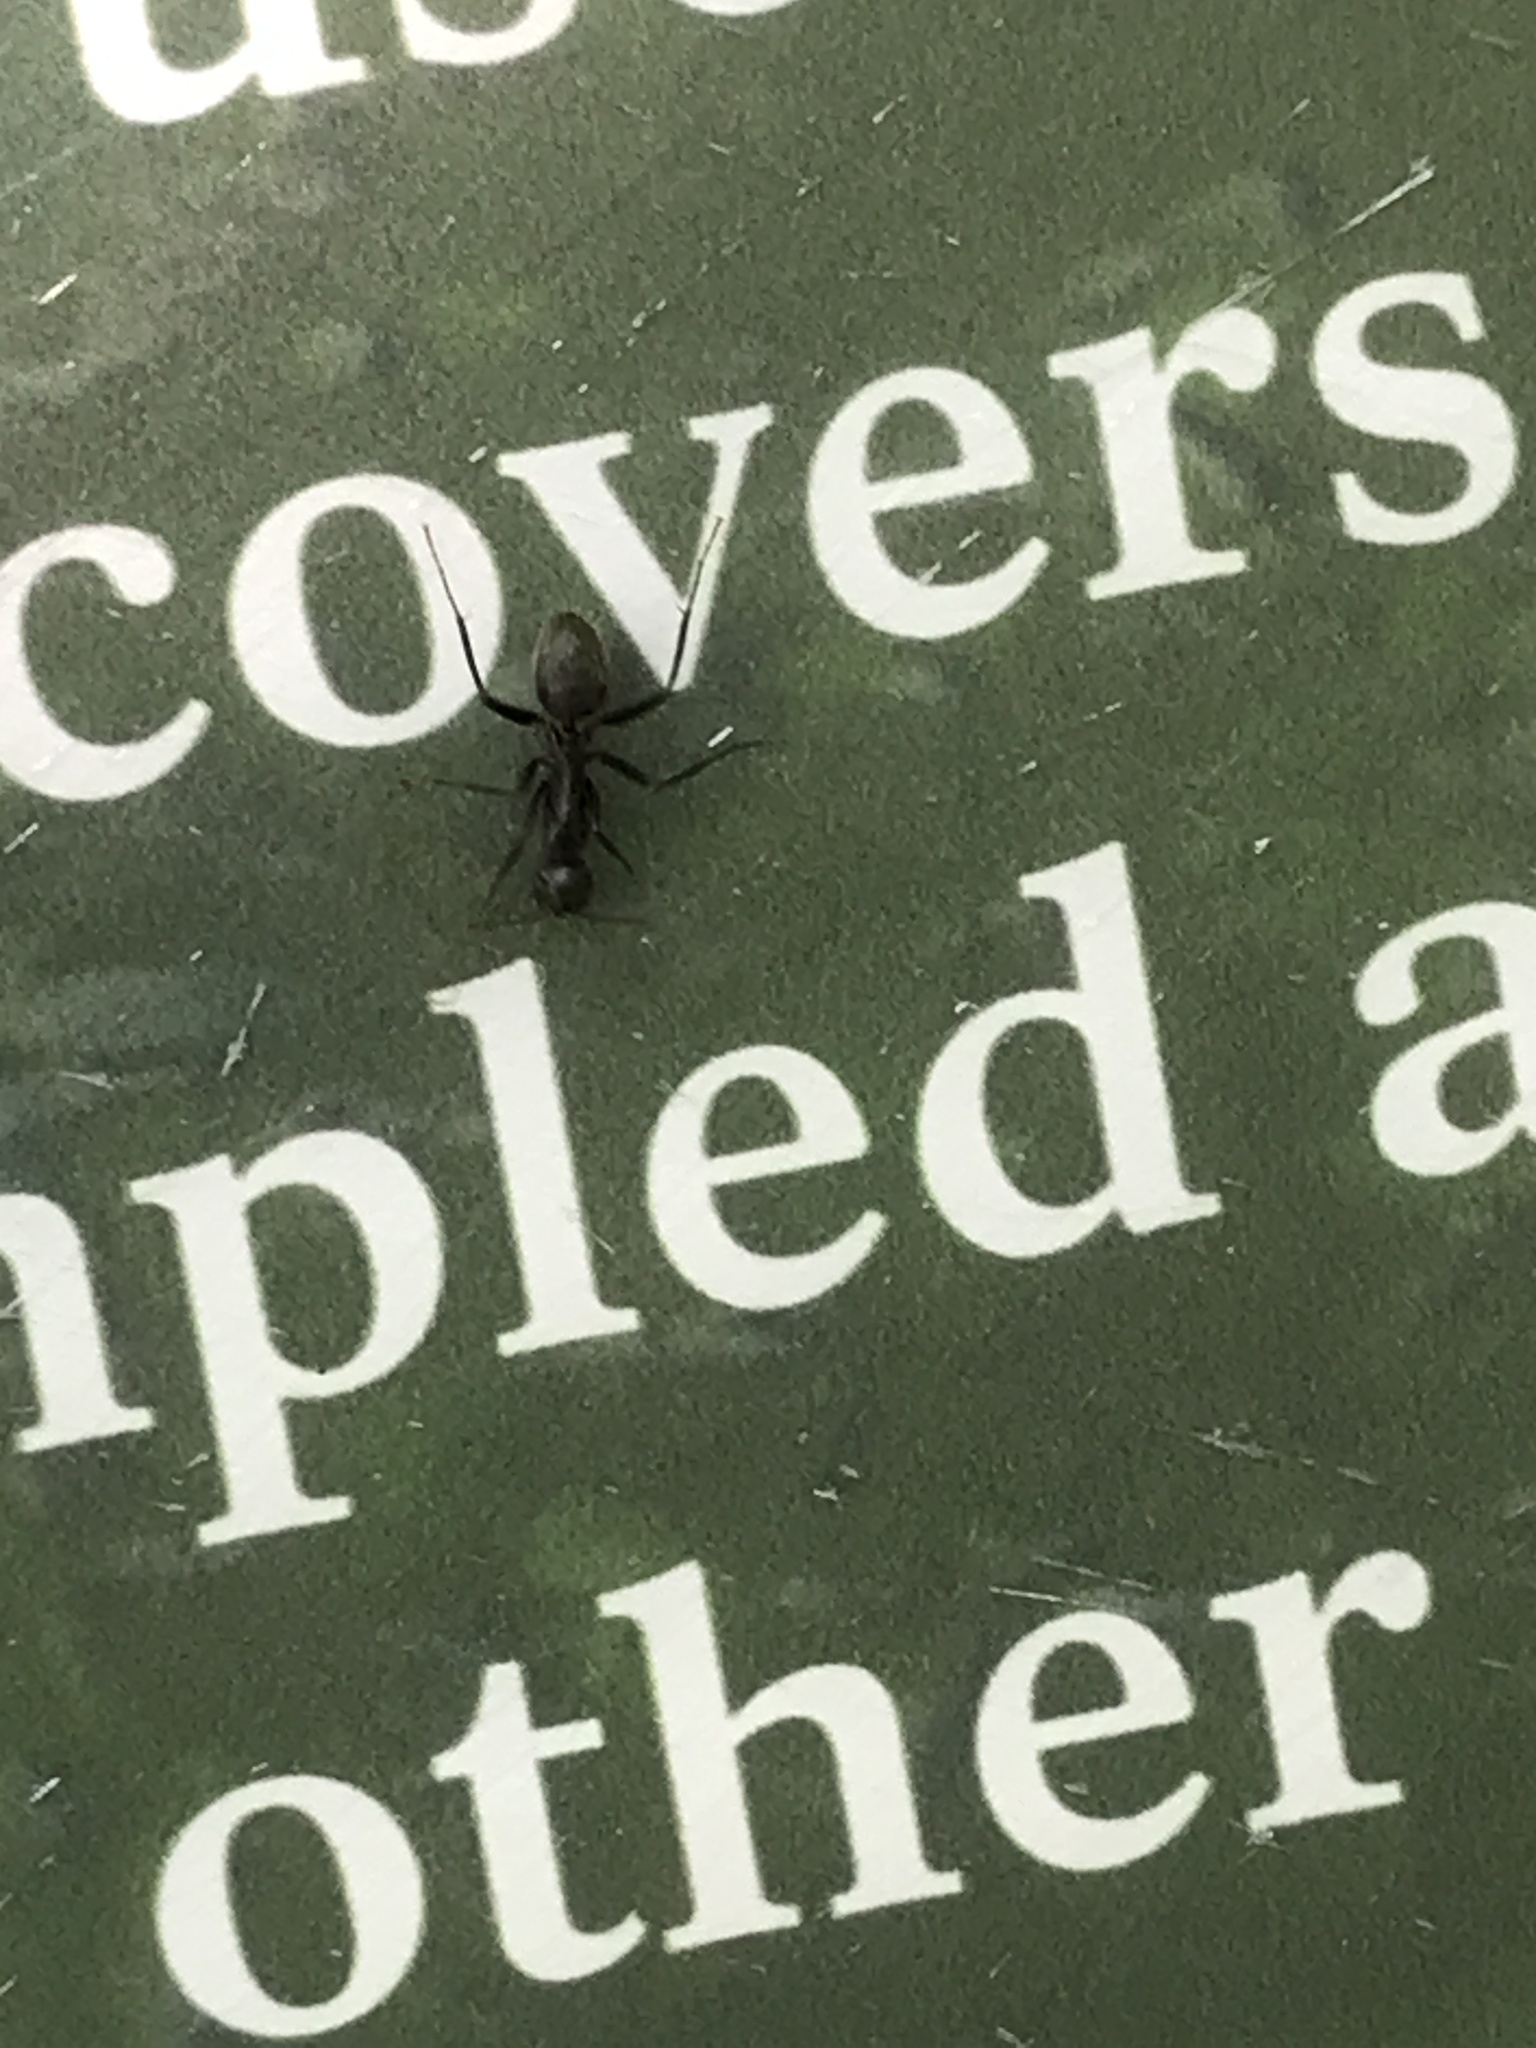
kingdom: Animalia
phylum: Arthropoda
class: Insecta
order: Hymenoptera
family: Formicidae
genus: Camponotus
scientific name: Camponotus pennsylvanicus
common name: Black carpenter ant
